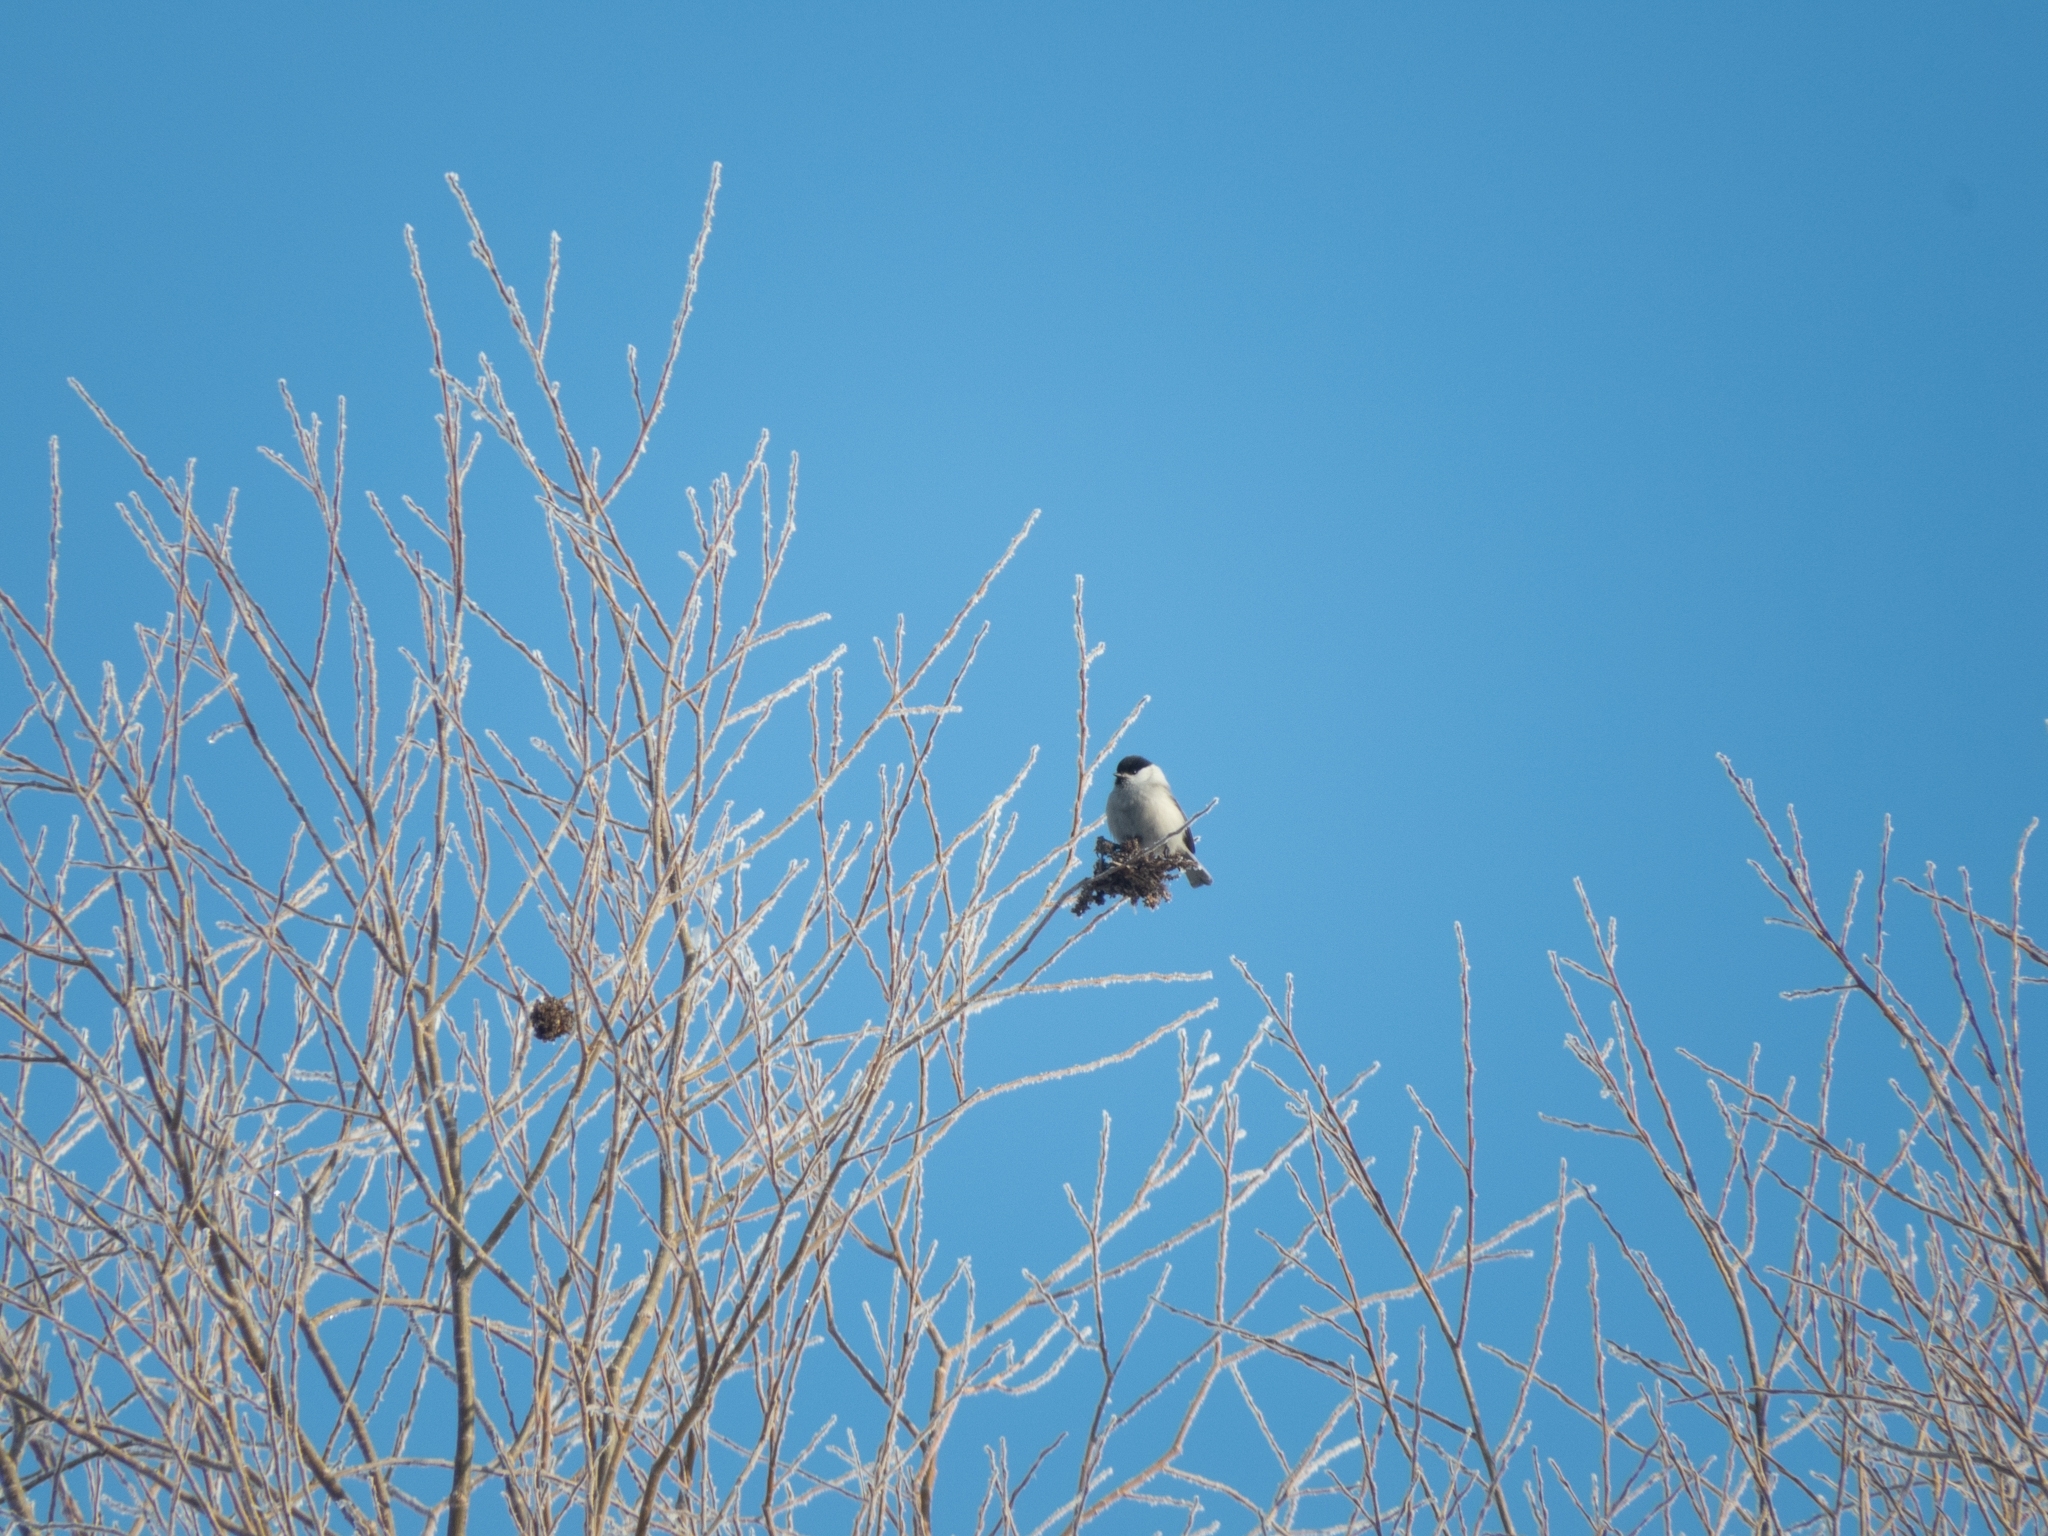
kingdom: Animalia
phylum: Chordata
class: Aves
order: Passeriformes
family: Paridae
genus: Poecile
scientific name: Poecile montanus
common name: Willow tit
